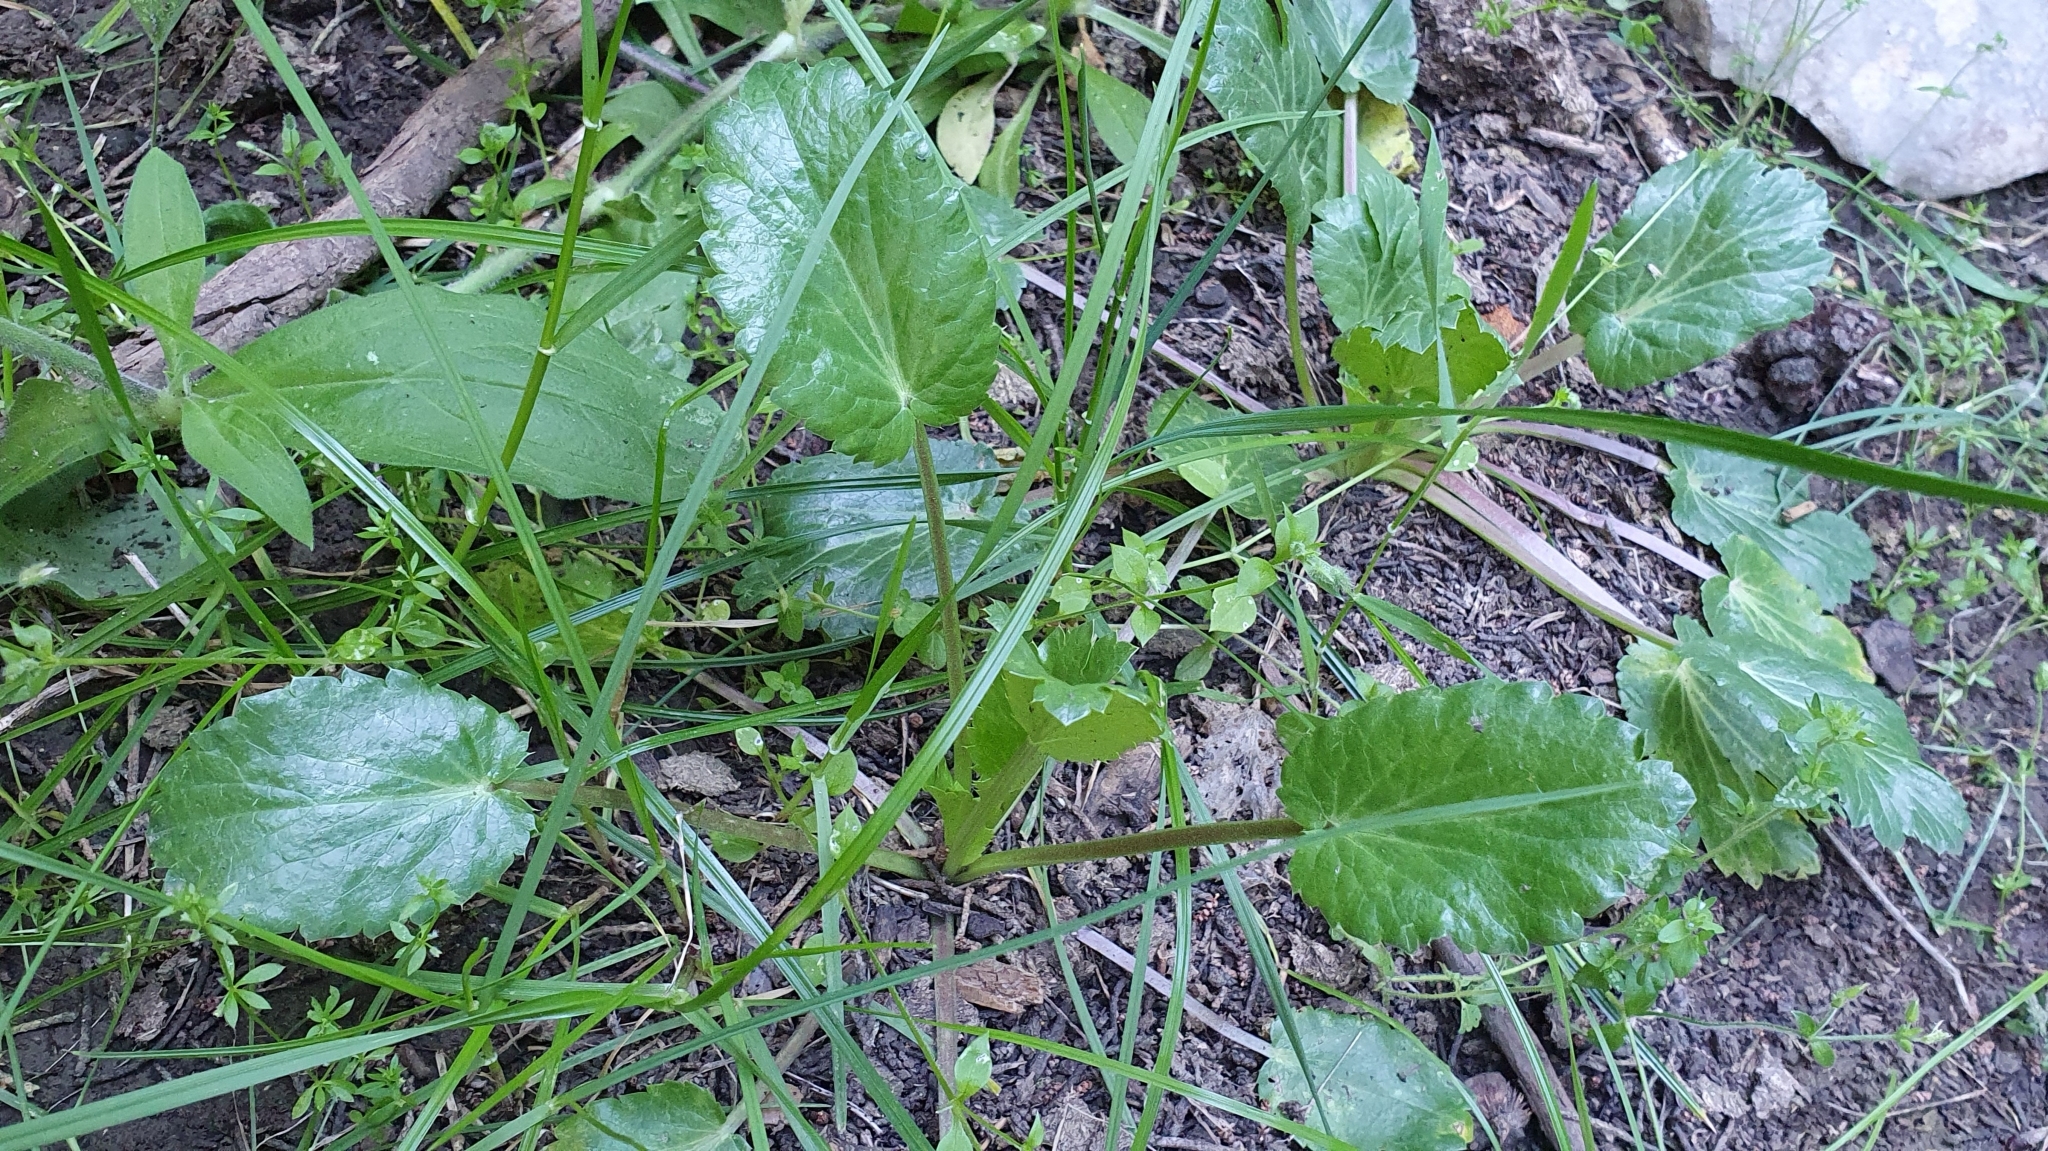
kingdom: Plantae
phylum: Tracheophyta
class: Magnoliopsida
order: Apiales
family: Apiaceae
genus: Eryngium
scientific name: Eryngium triquetrum
